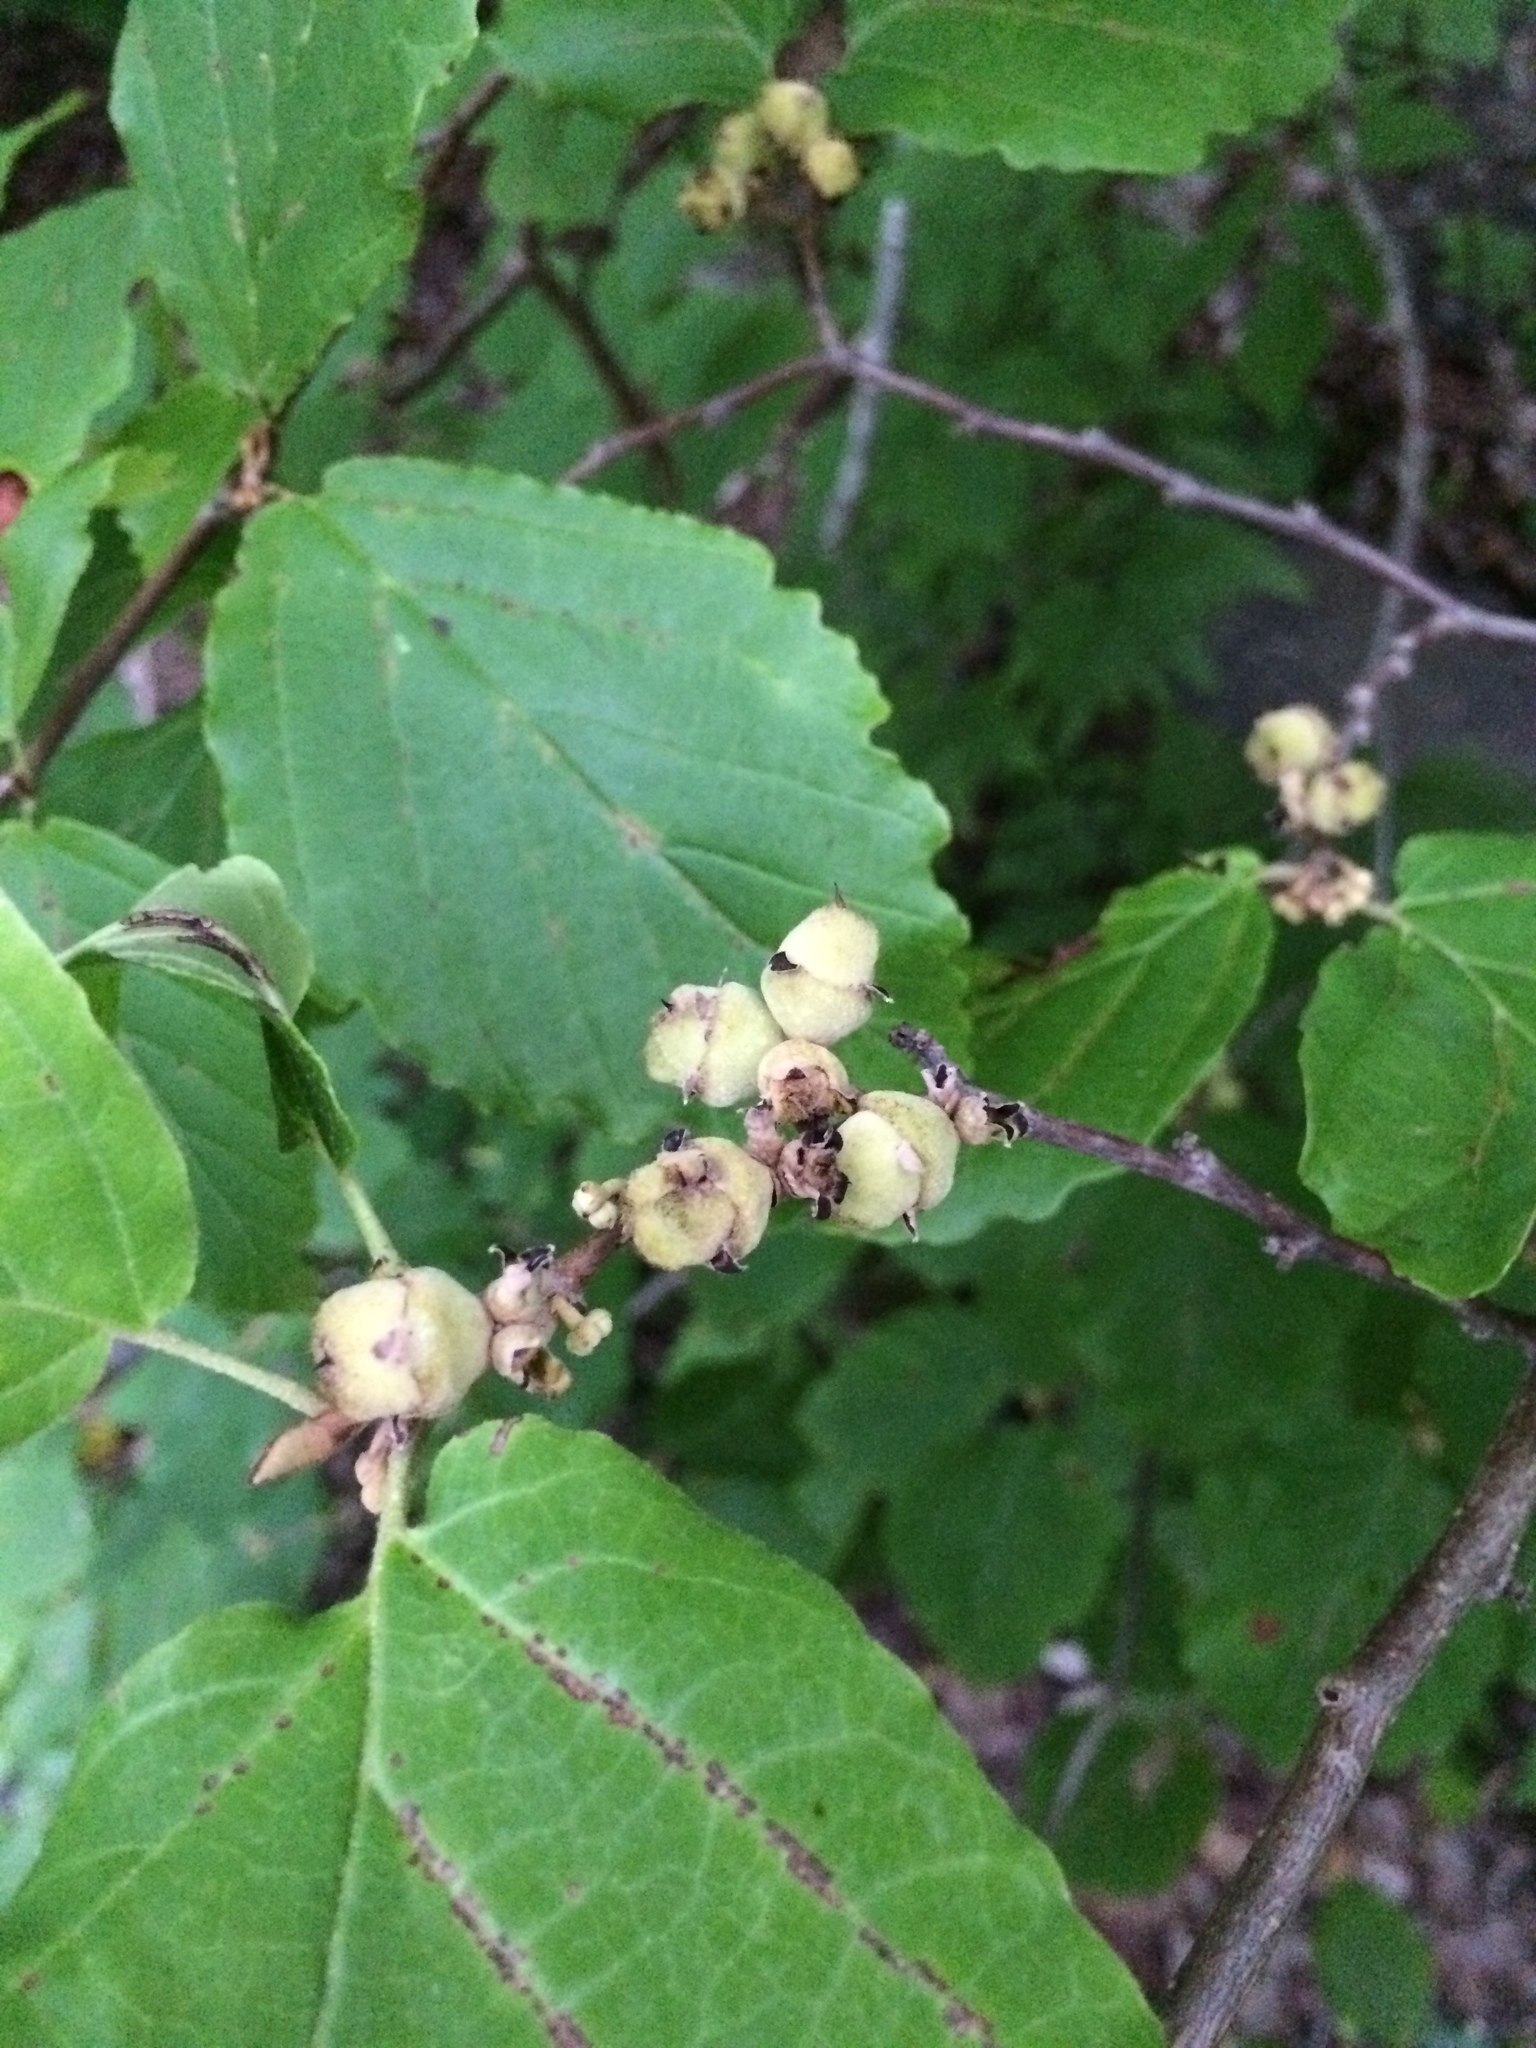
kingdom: Plantae
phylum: Tracheophyta
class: Magnoliopsida
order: Saxifragales
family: Hamamelidaceae
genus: Hamamelis
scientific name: Hamamelis virginiana
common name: Witch-hazel
